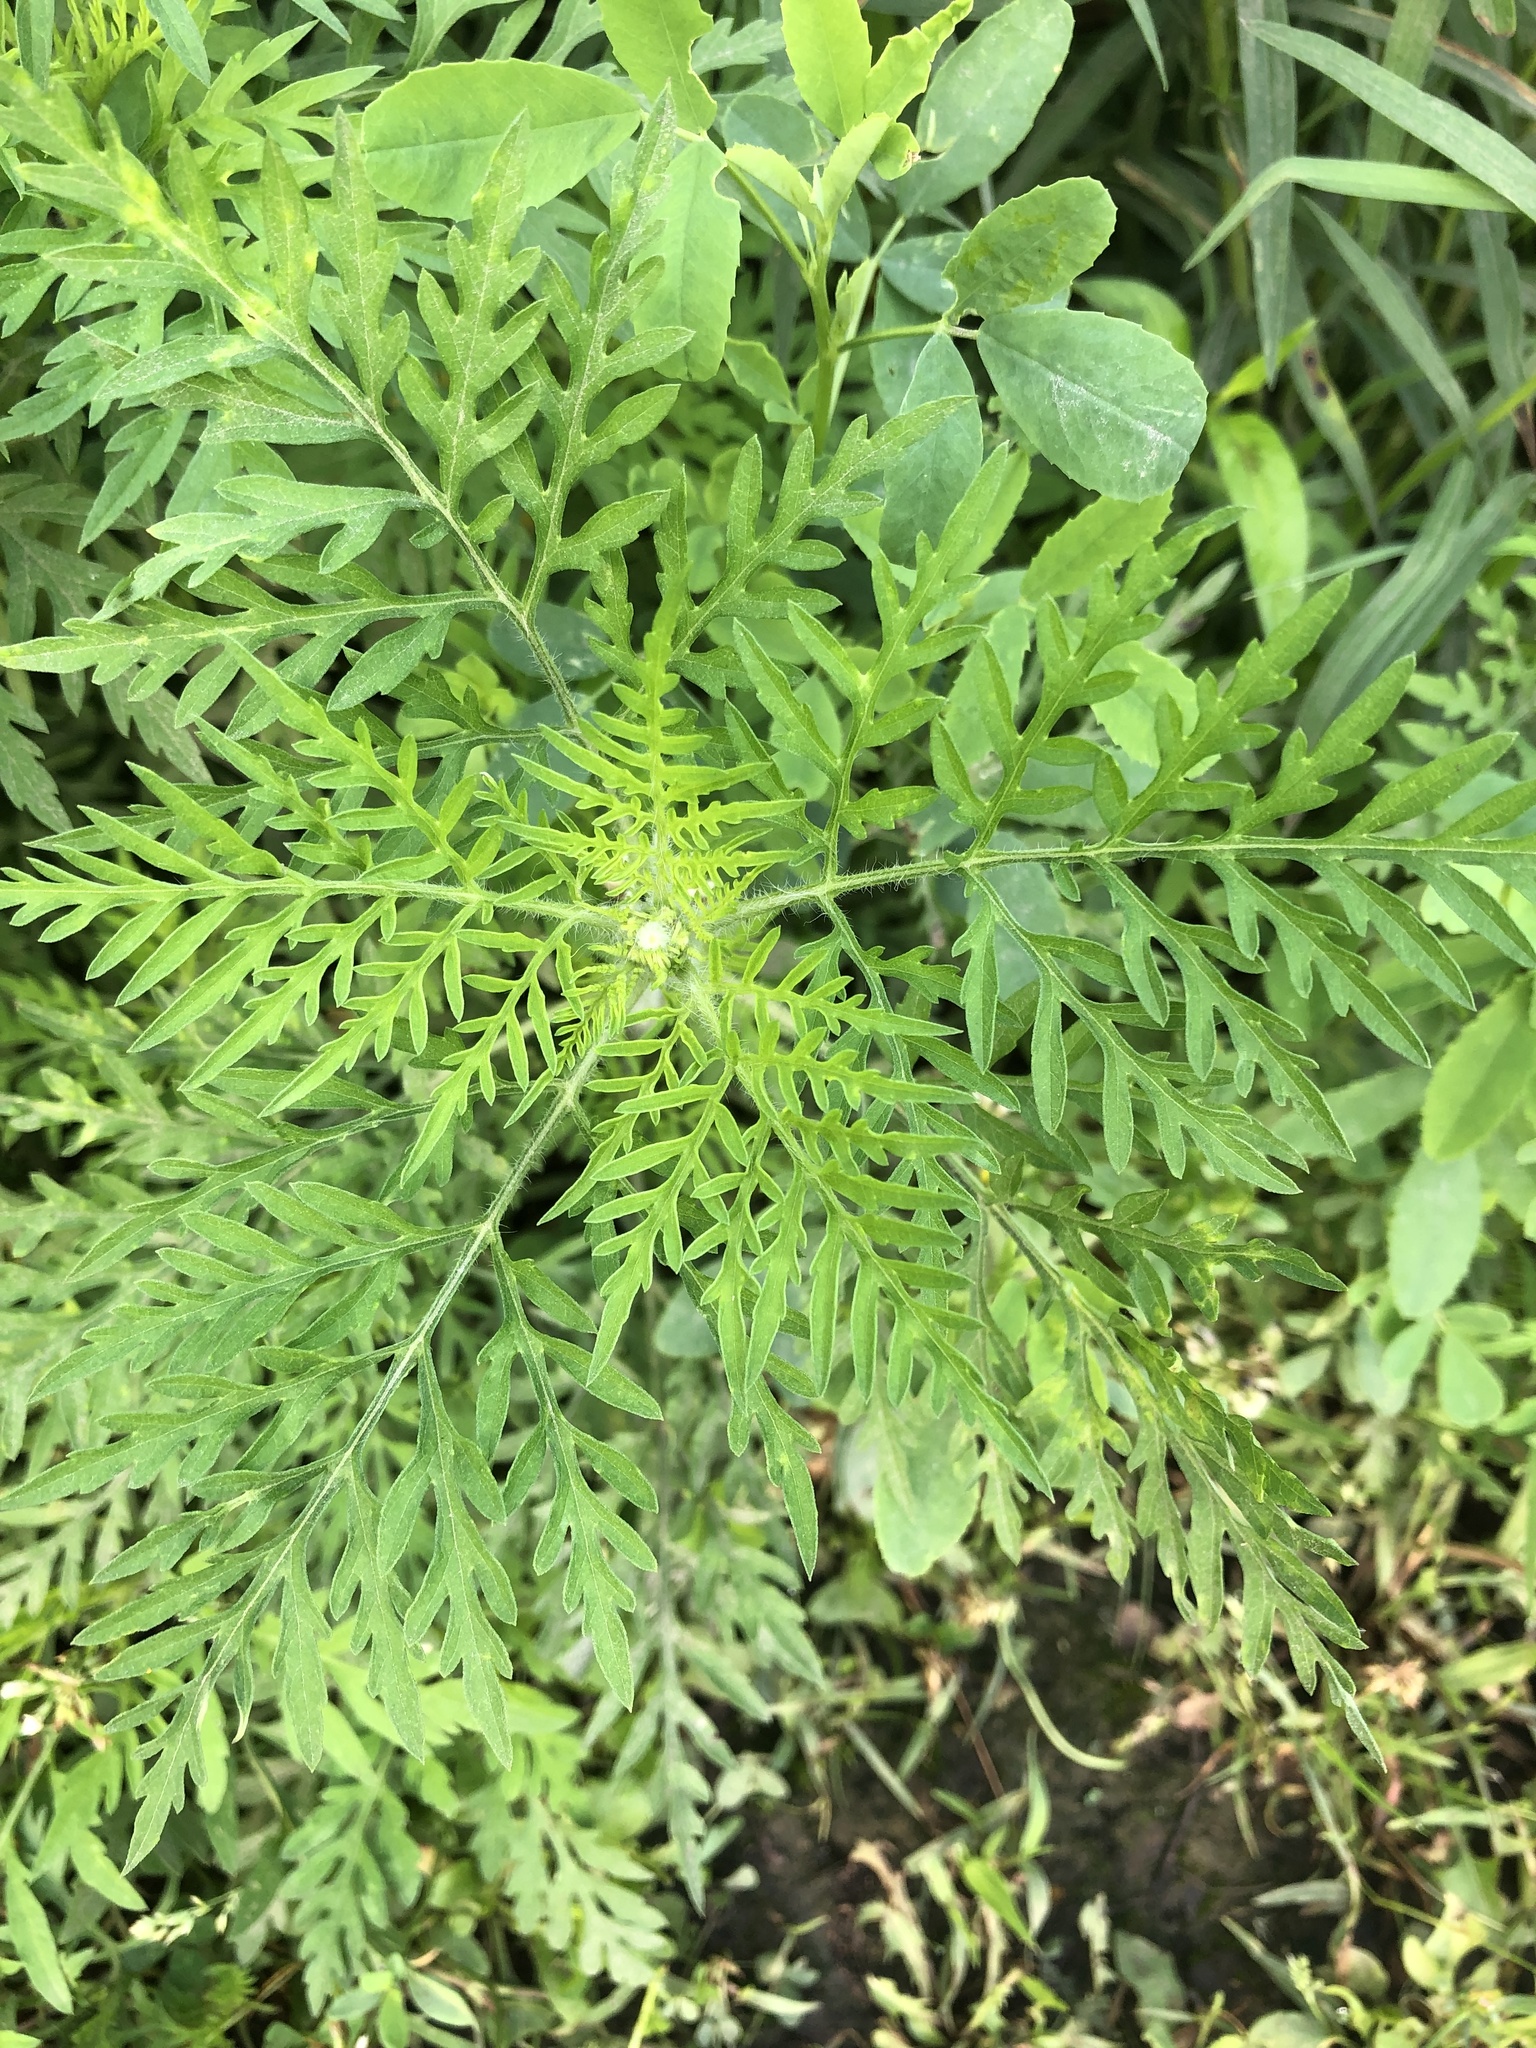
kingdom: Plantae
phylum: Tracheophyta
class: Magnoliopsida
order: Asterales
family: Asteraceae
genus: Ambrosia
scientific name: Ambrosia artemisiifolia
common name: Annual ragweed
